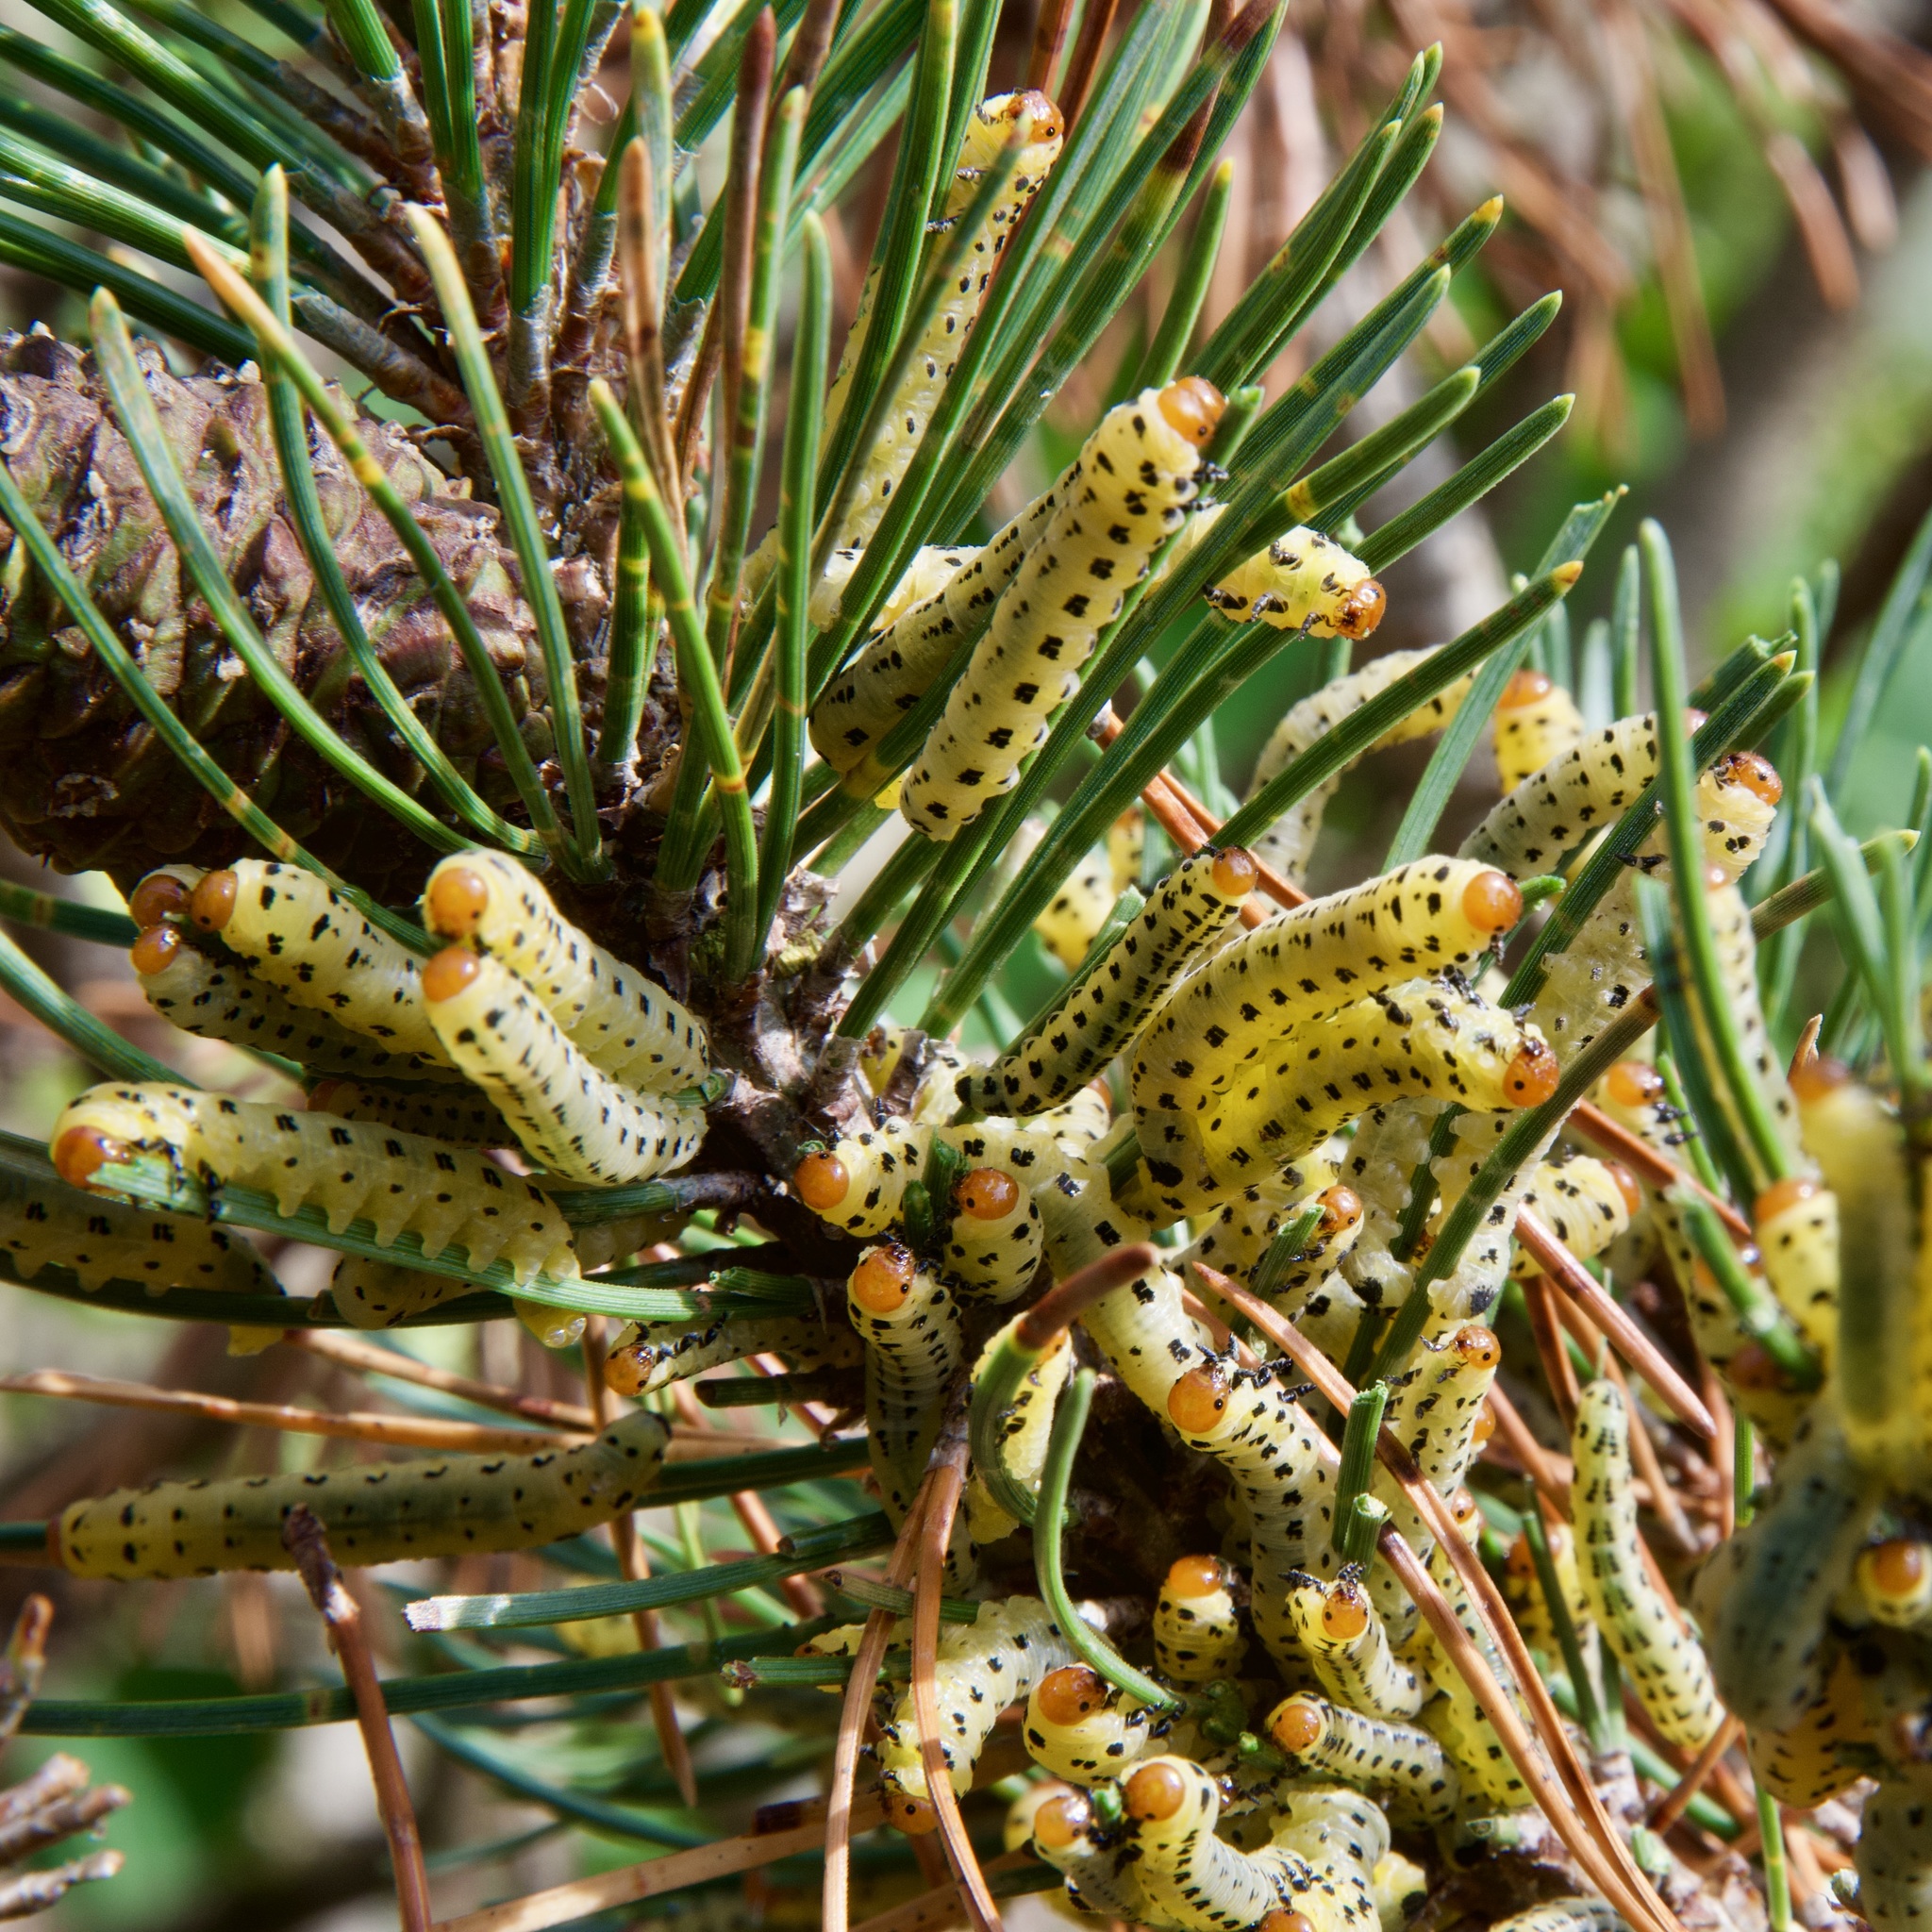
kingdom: Animalia
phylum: Arthropoda
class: Insecta
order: Hymenoptera
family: Diprionidae
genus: Neodiprion
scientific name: Neodiprion lecontei
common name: Redheaded pine sawfly
